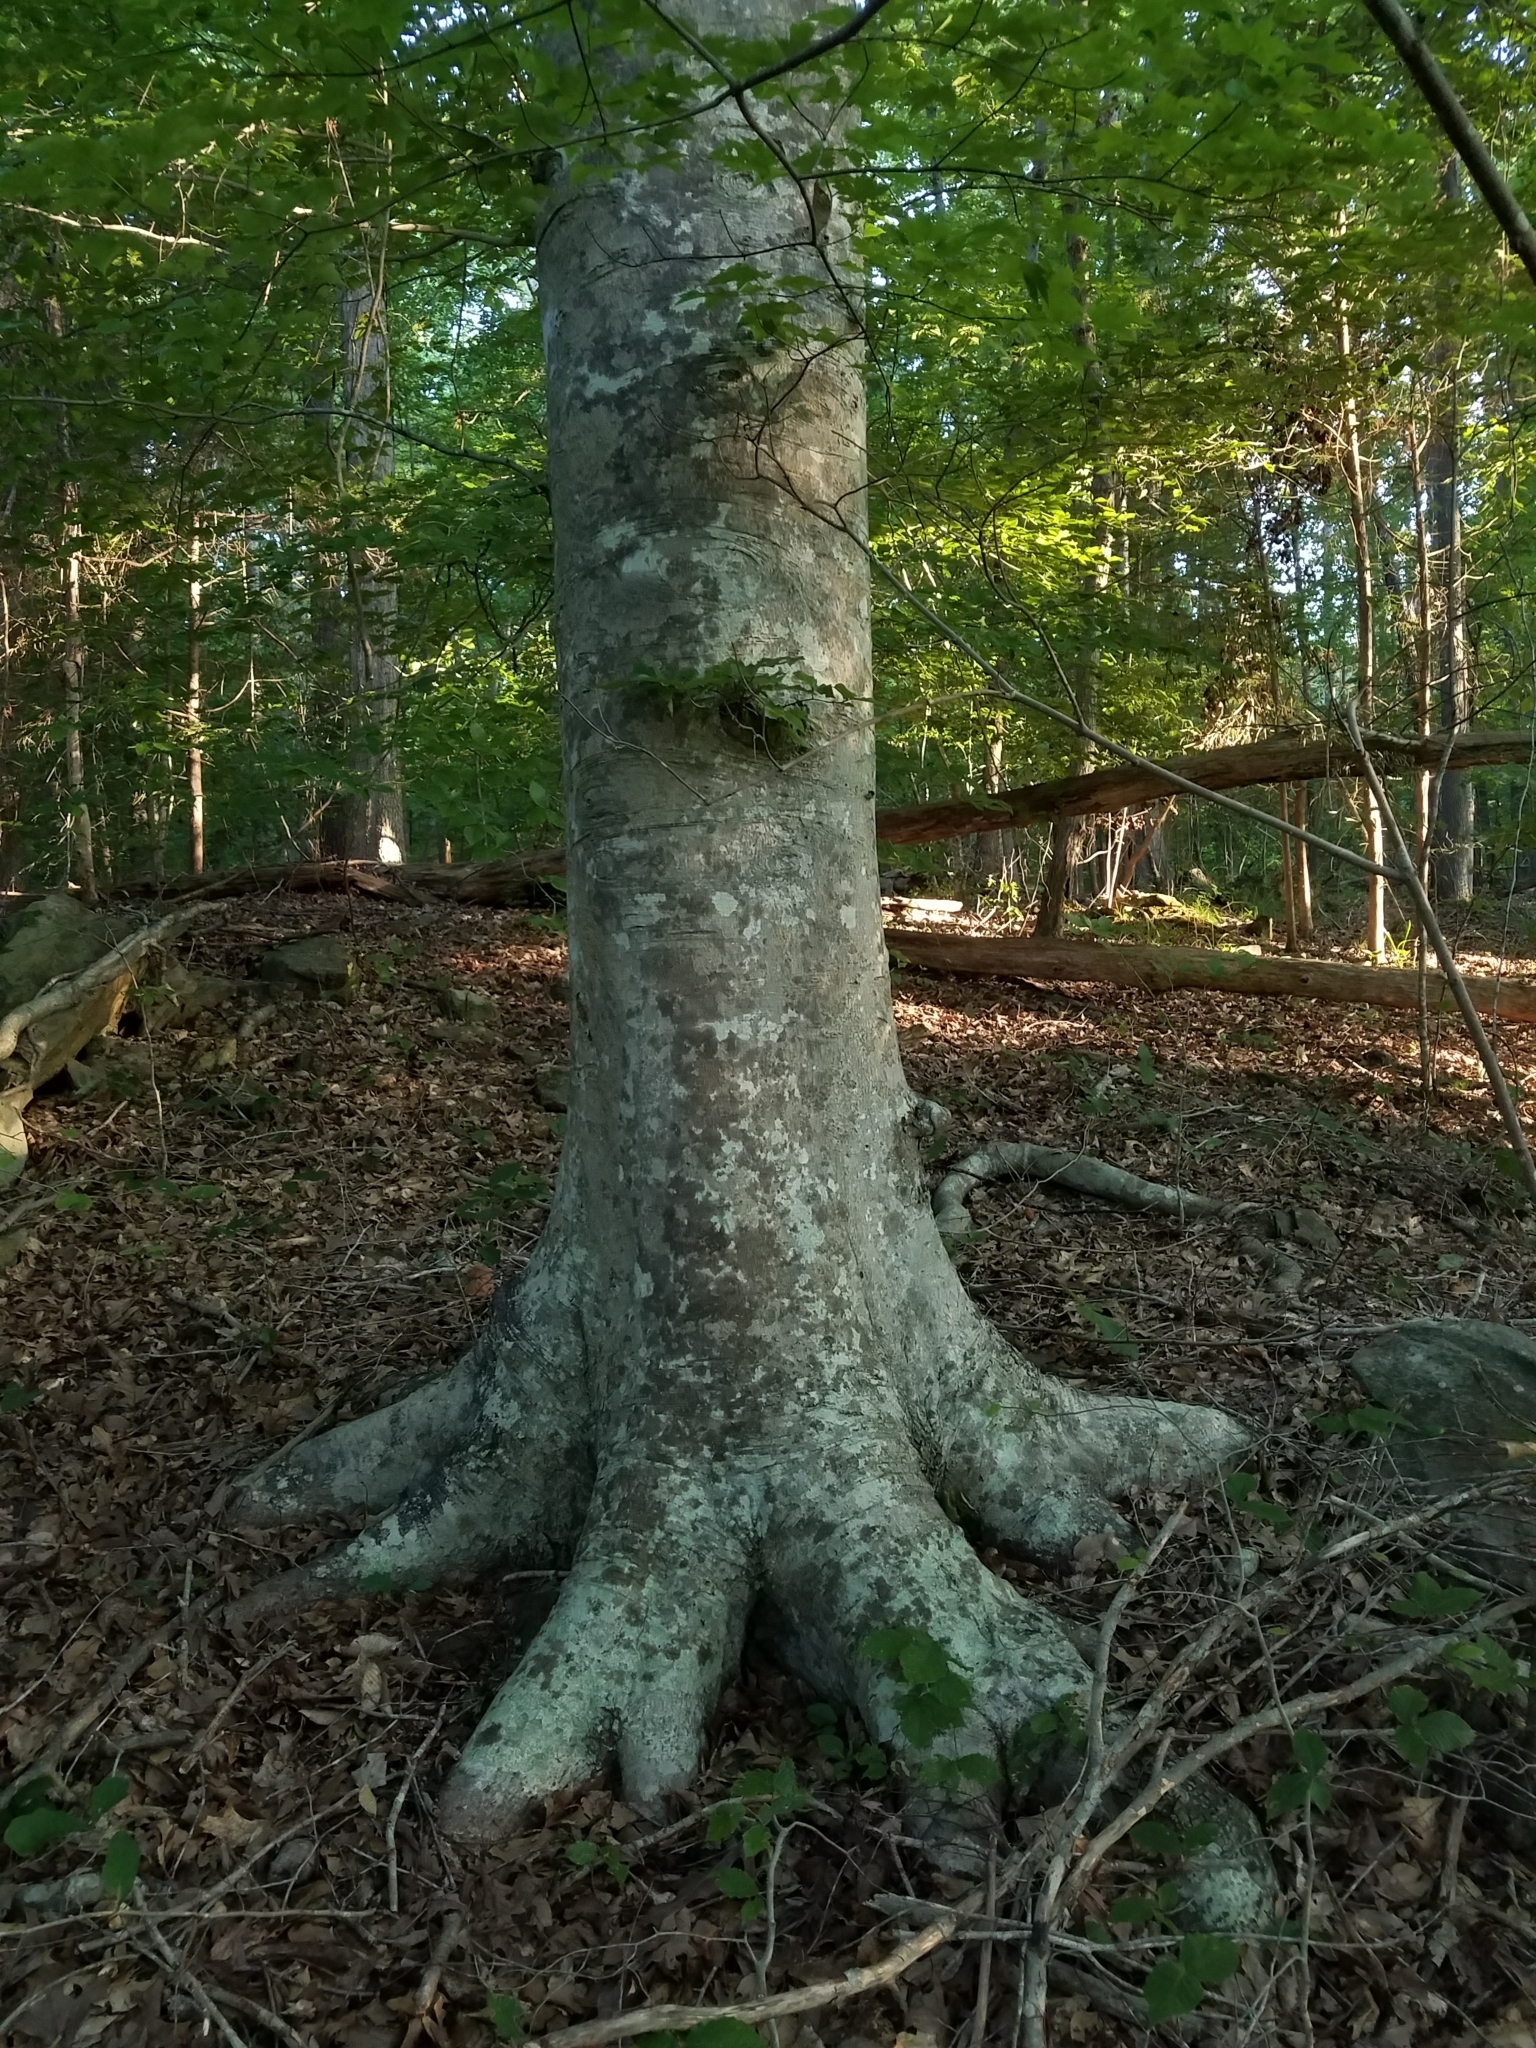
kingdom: Plantae
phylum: Tracheophyta
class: Magnoliopsida
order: Fagales
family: Fagaceae
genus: Fagus
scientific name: Fagus grandifolia
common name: American beech
